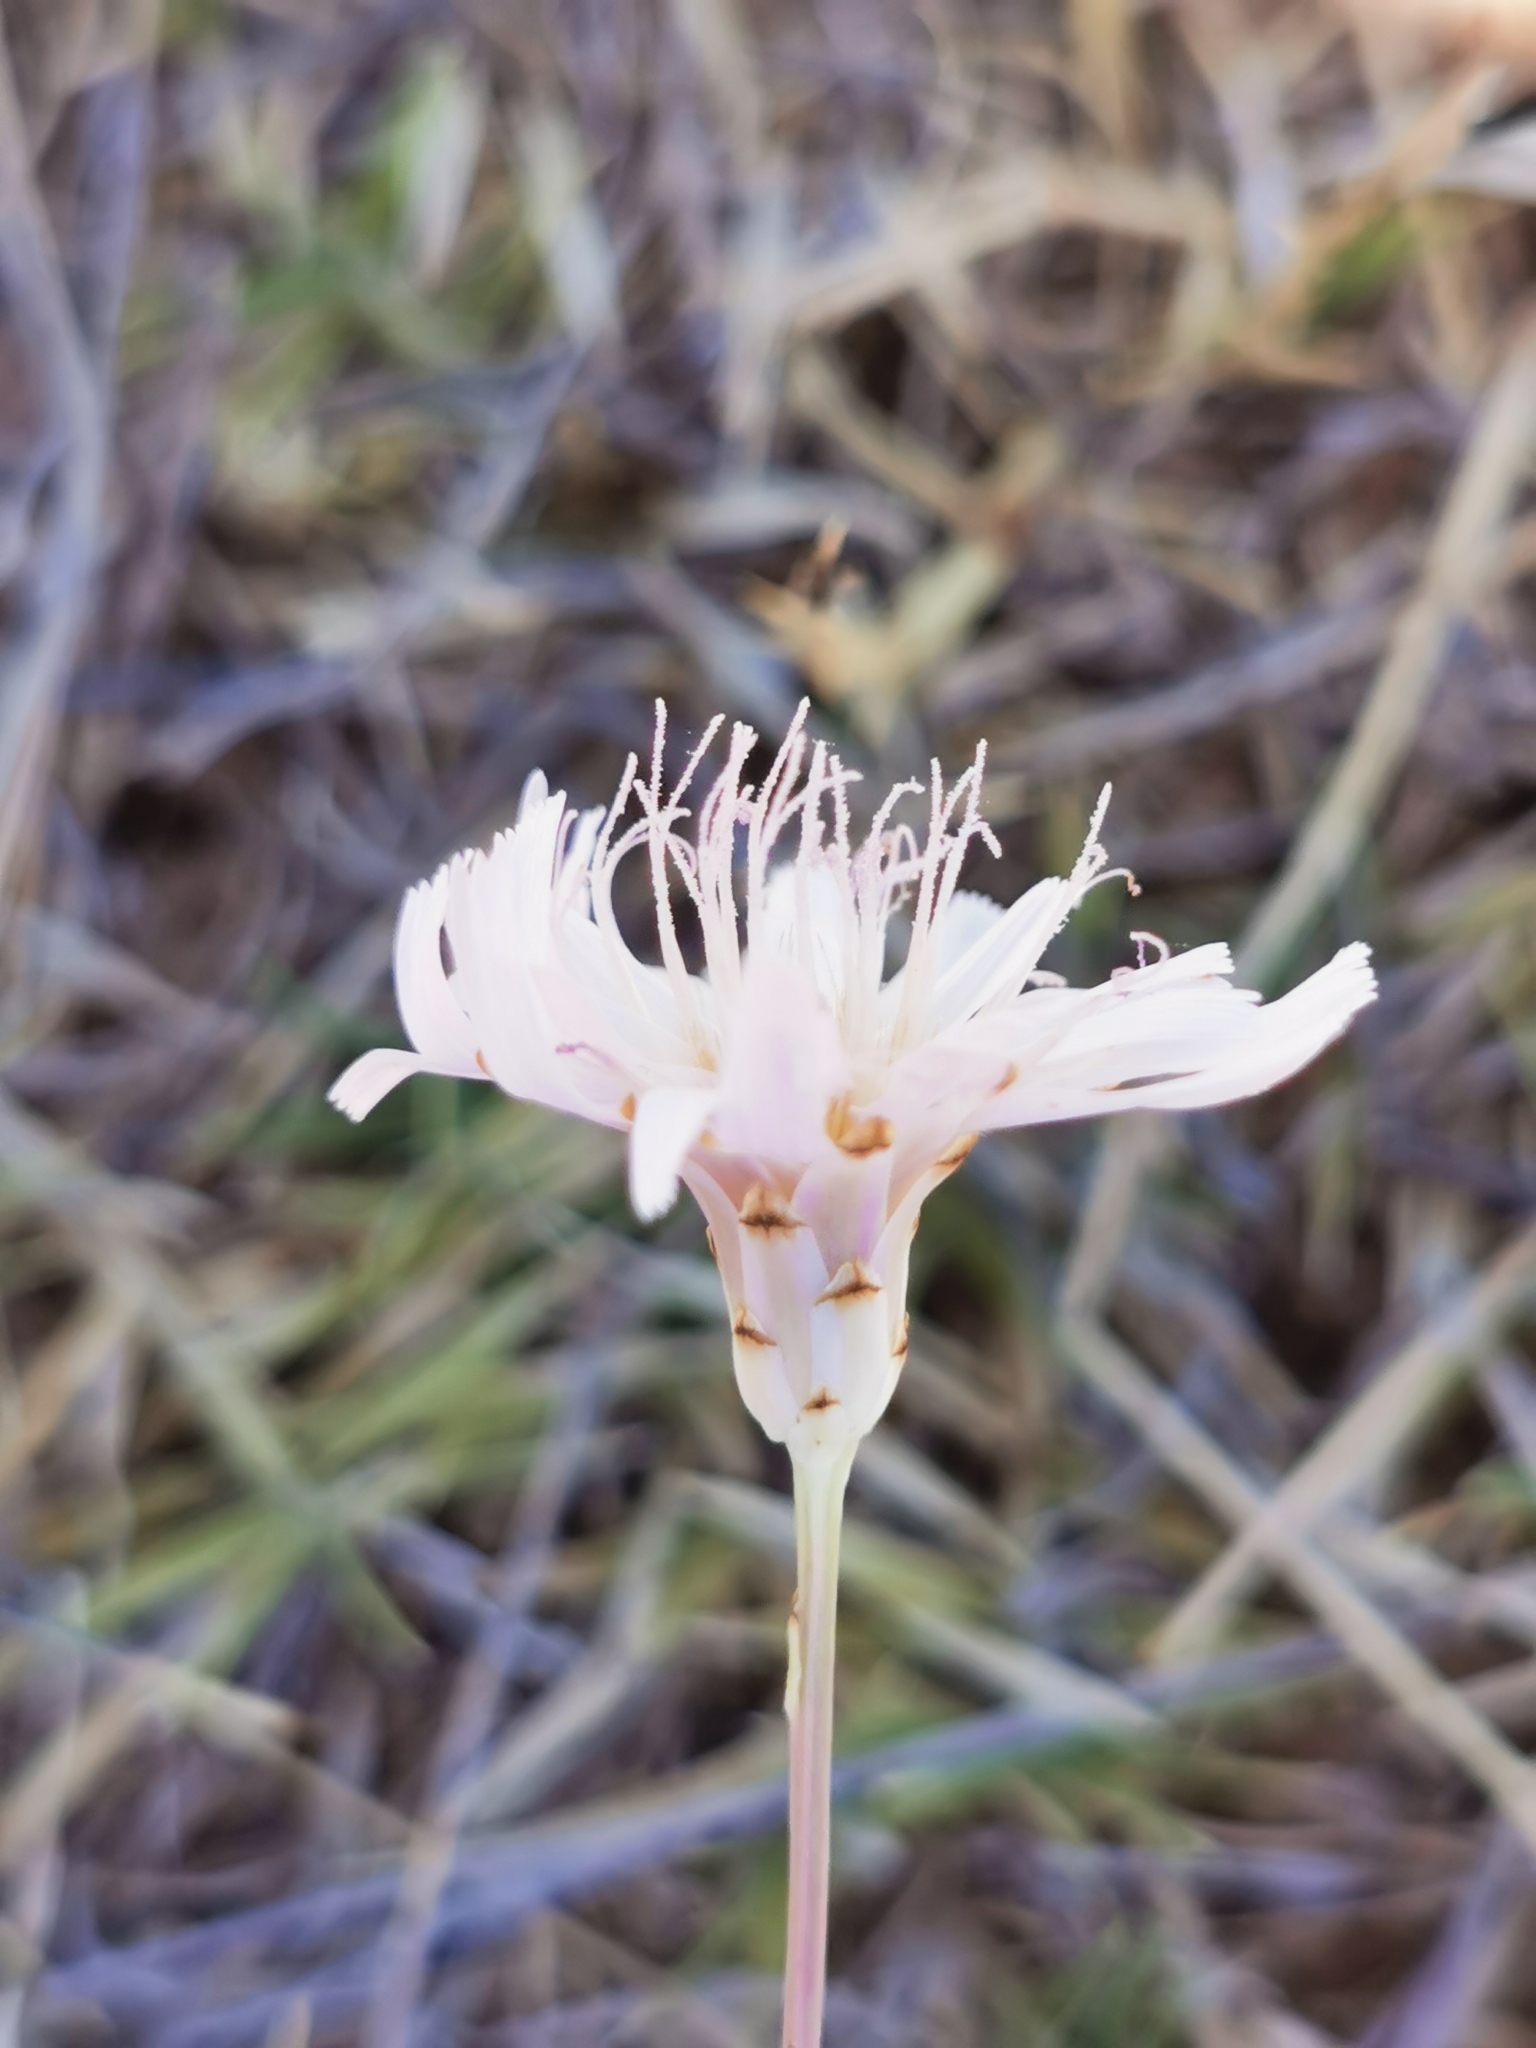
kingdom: Plantae
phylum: Tracheophyta
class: Magnoliopsida
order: Asterales
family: Asteraceae
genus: Pinaropappus
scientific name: Pinaropappus roseus
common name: Rock-lettuce
